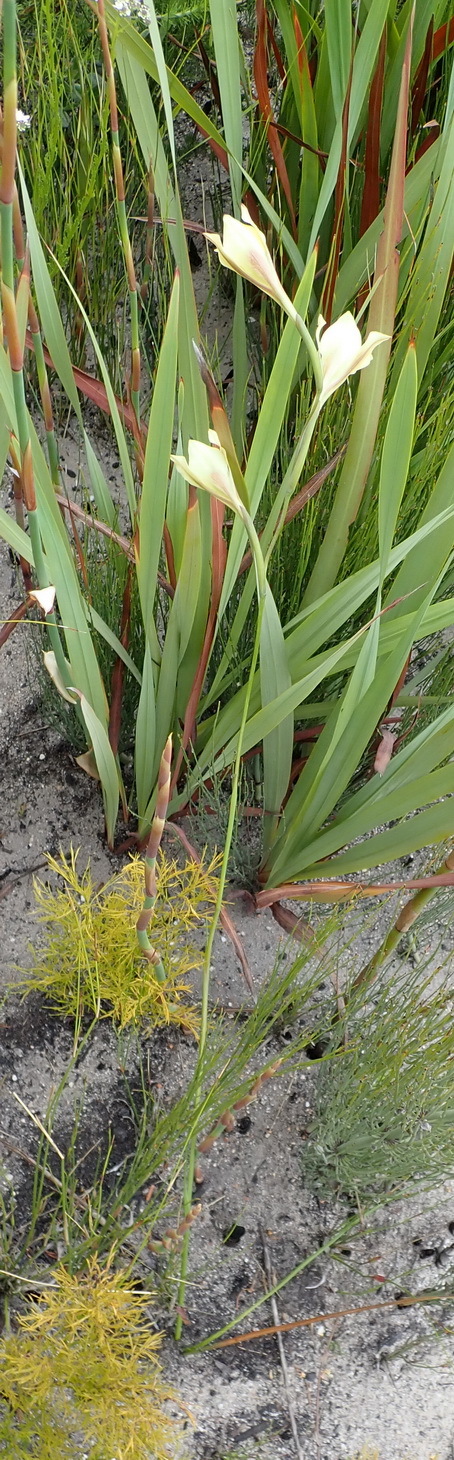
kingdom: Plantae
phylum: Tracheophyta
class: Liliopsida
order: Asparagales
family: Iridaceae
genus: Gladiolus
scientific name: Gladiolus tristis
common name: Ever-flowering gladiolus
